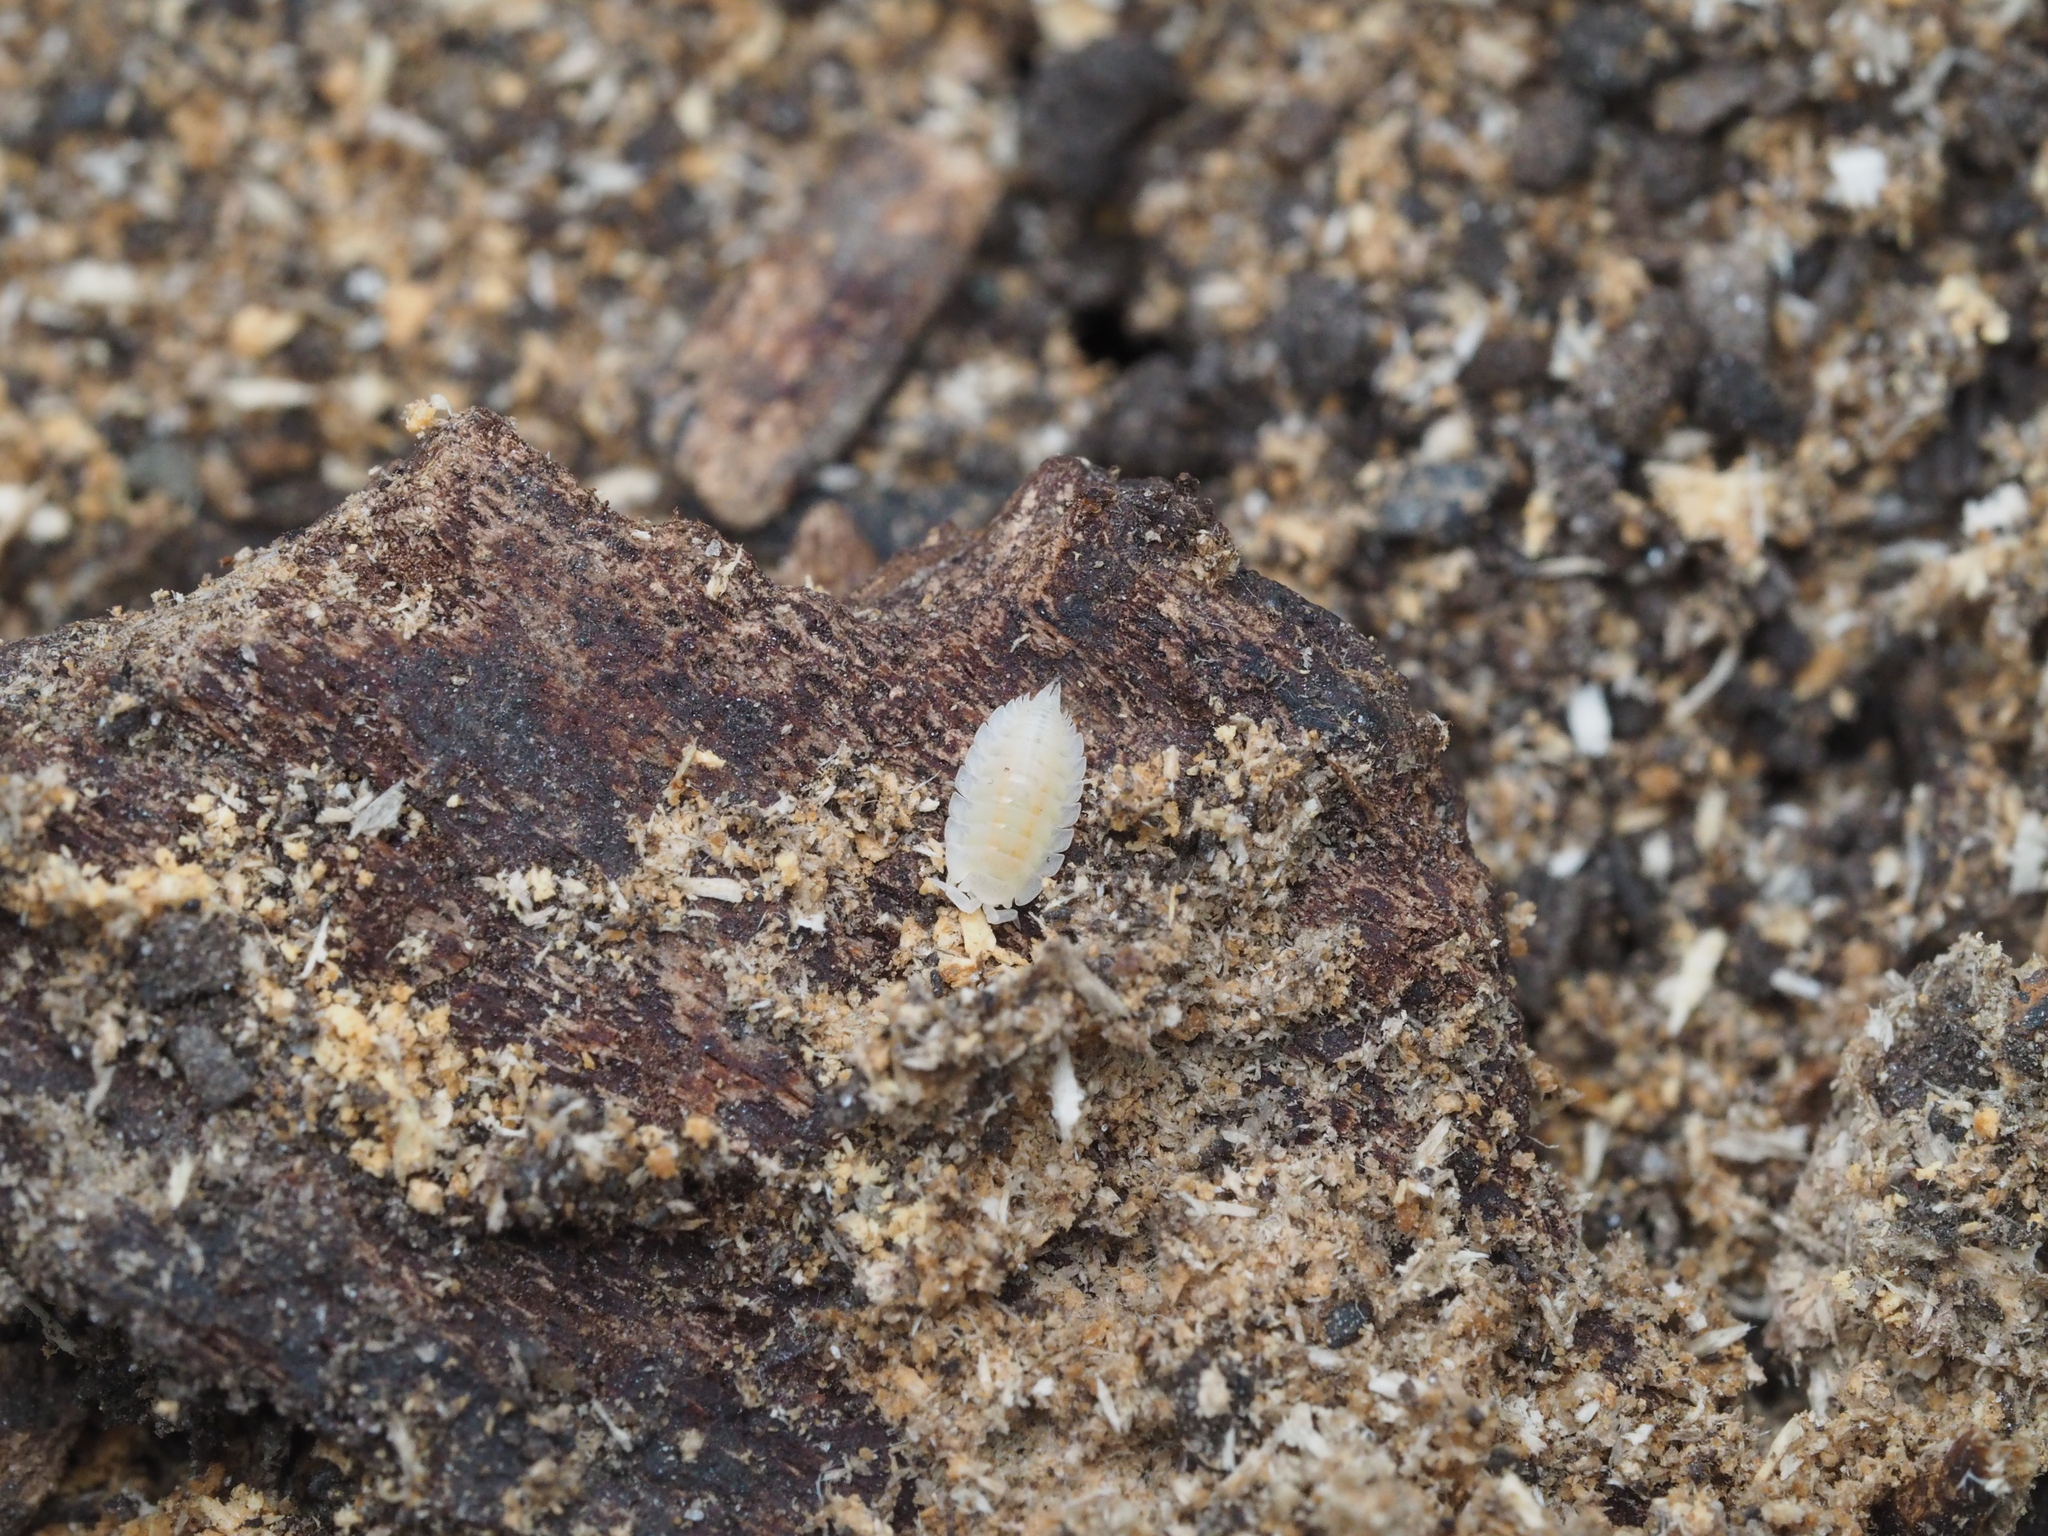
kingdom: Animalia
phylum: Arthropoda
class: Malacostraca
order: Isopoda
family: Platyarthridae
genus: Platyarthrus
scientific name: Platyarthrus hoffmannseggii
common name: Ant woodlouse
